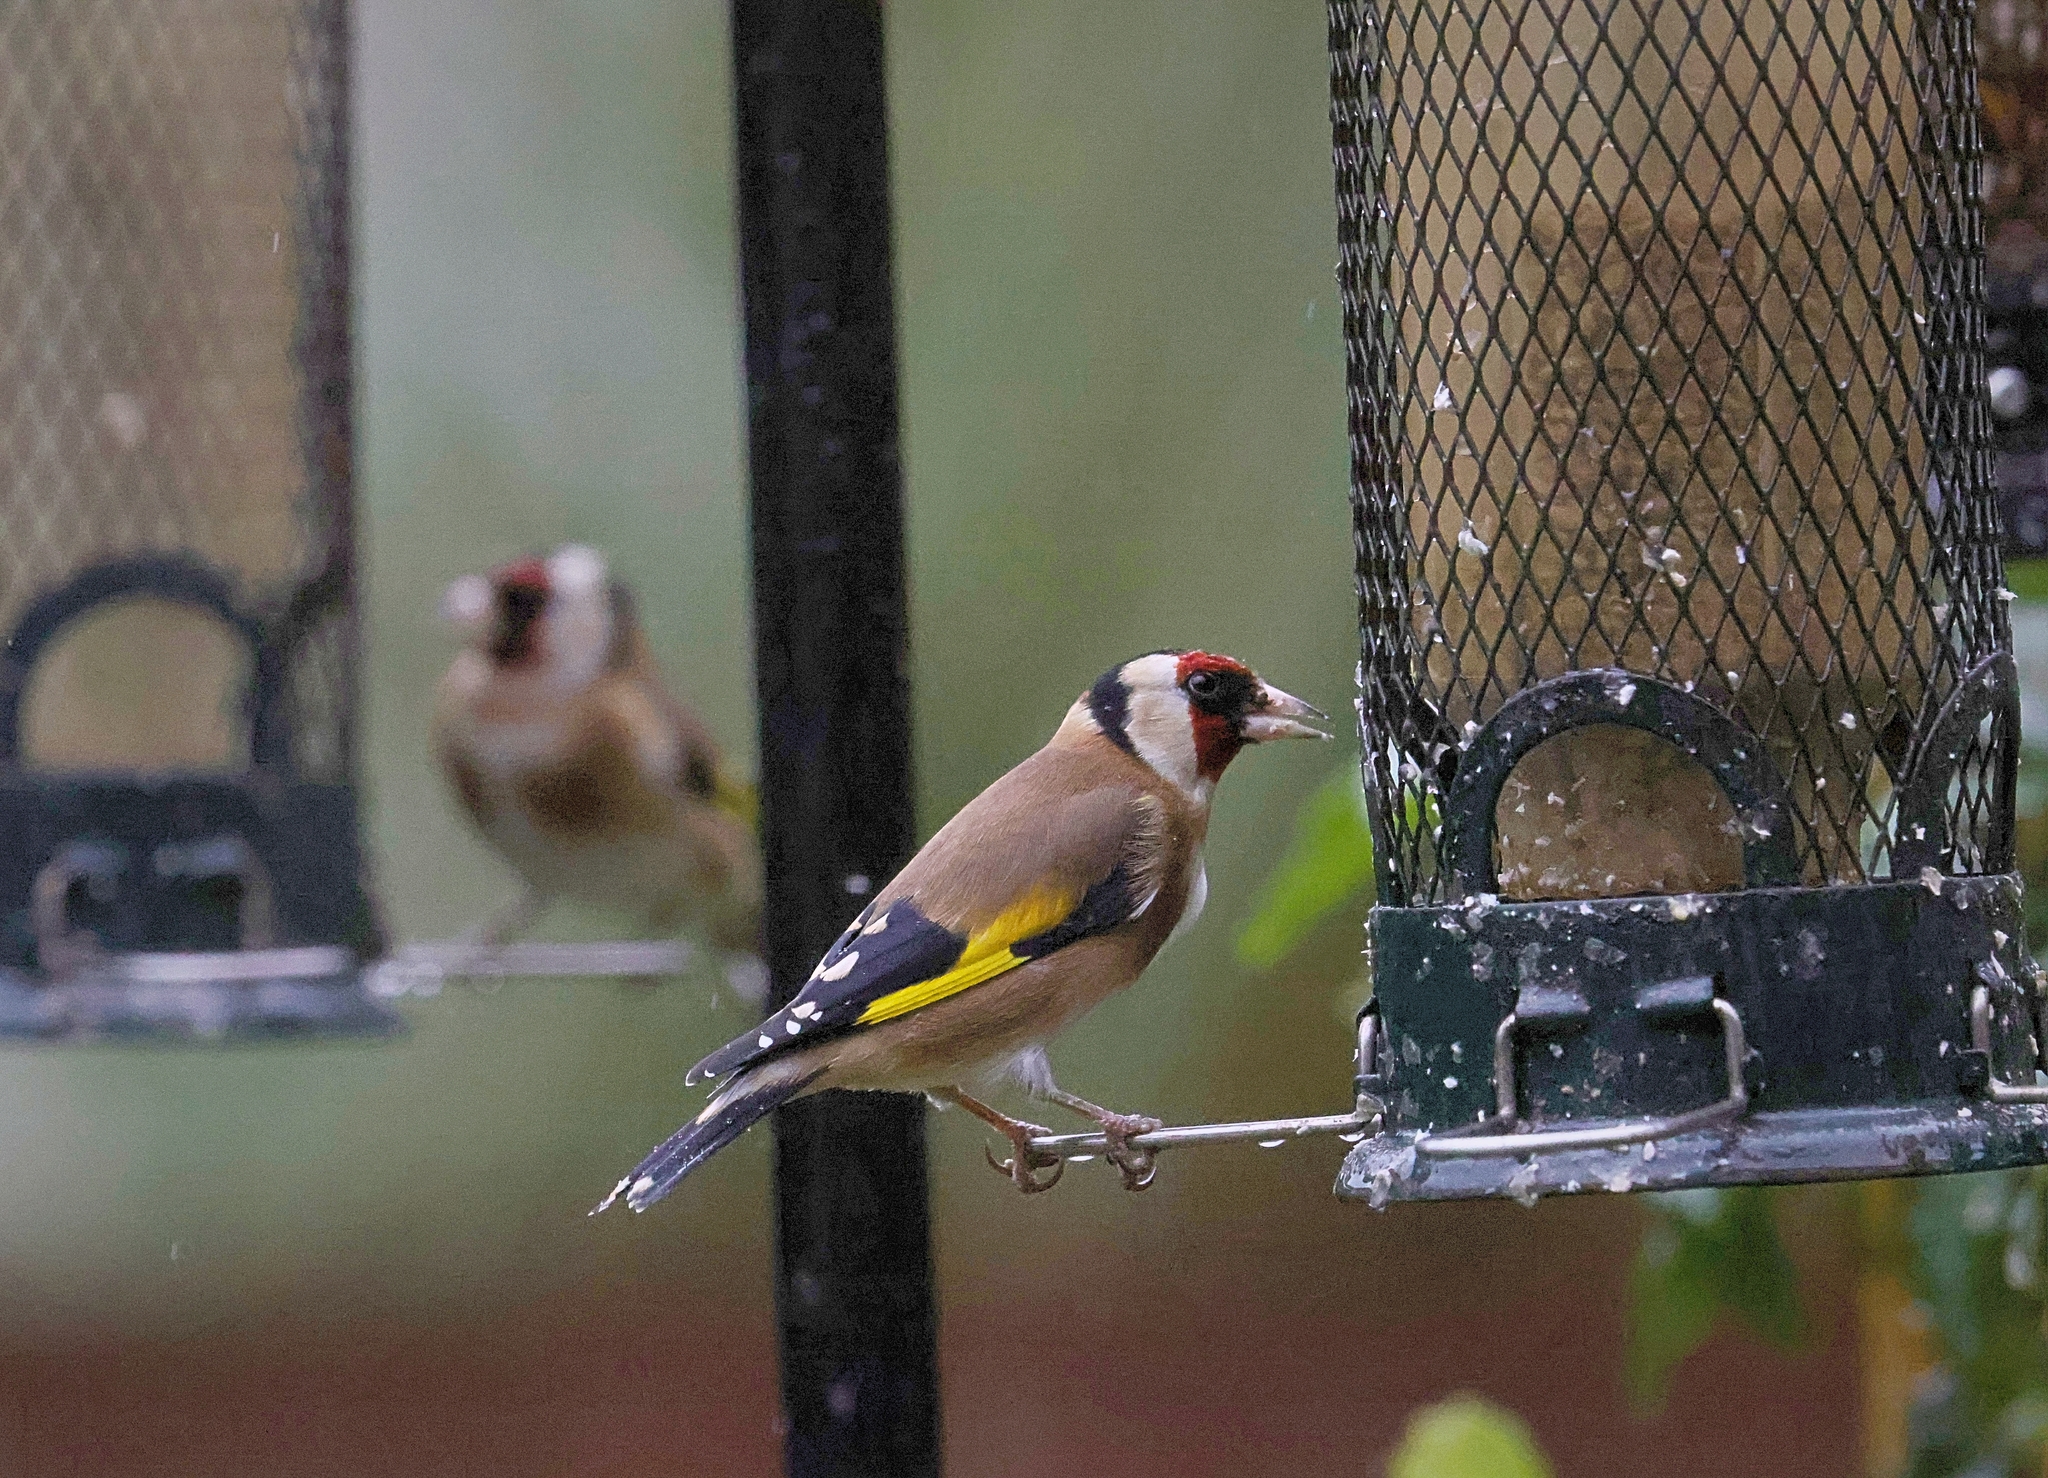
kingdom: Animalia
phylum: Chordata
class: Aves
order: Passeriformes
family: Fringillidae
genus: Carduelis
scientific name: Carduelis carduelis
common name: European goldfinch
